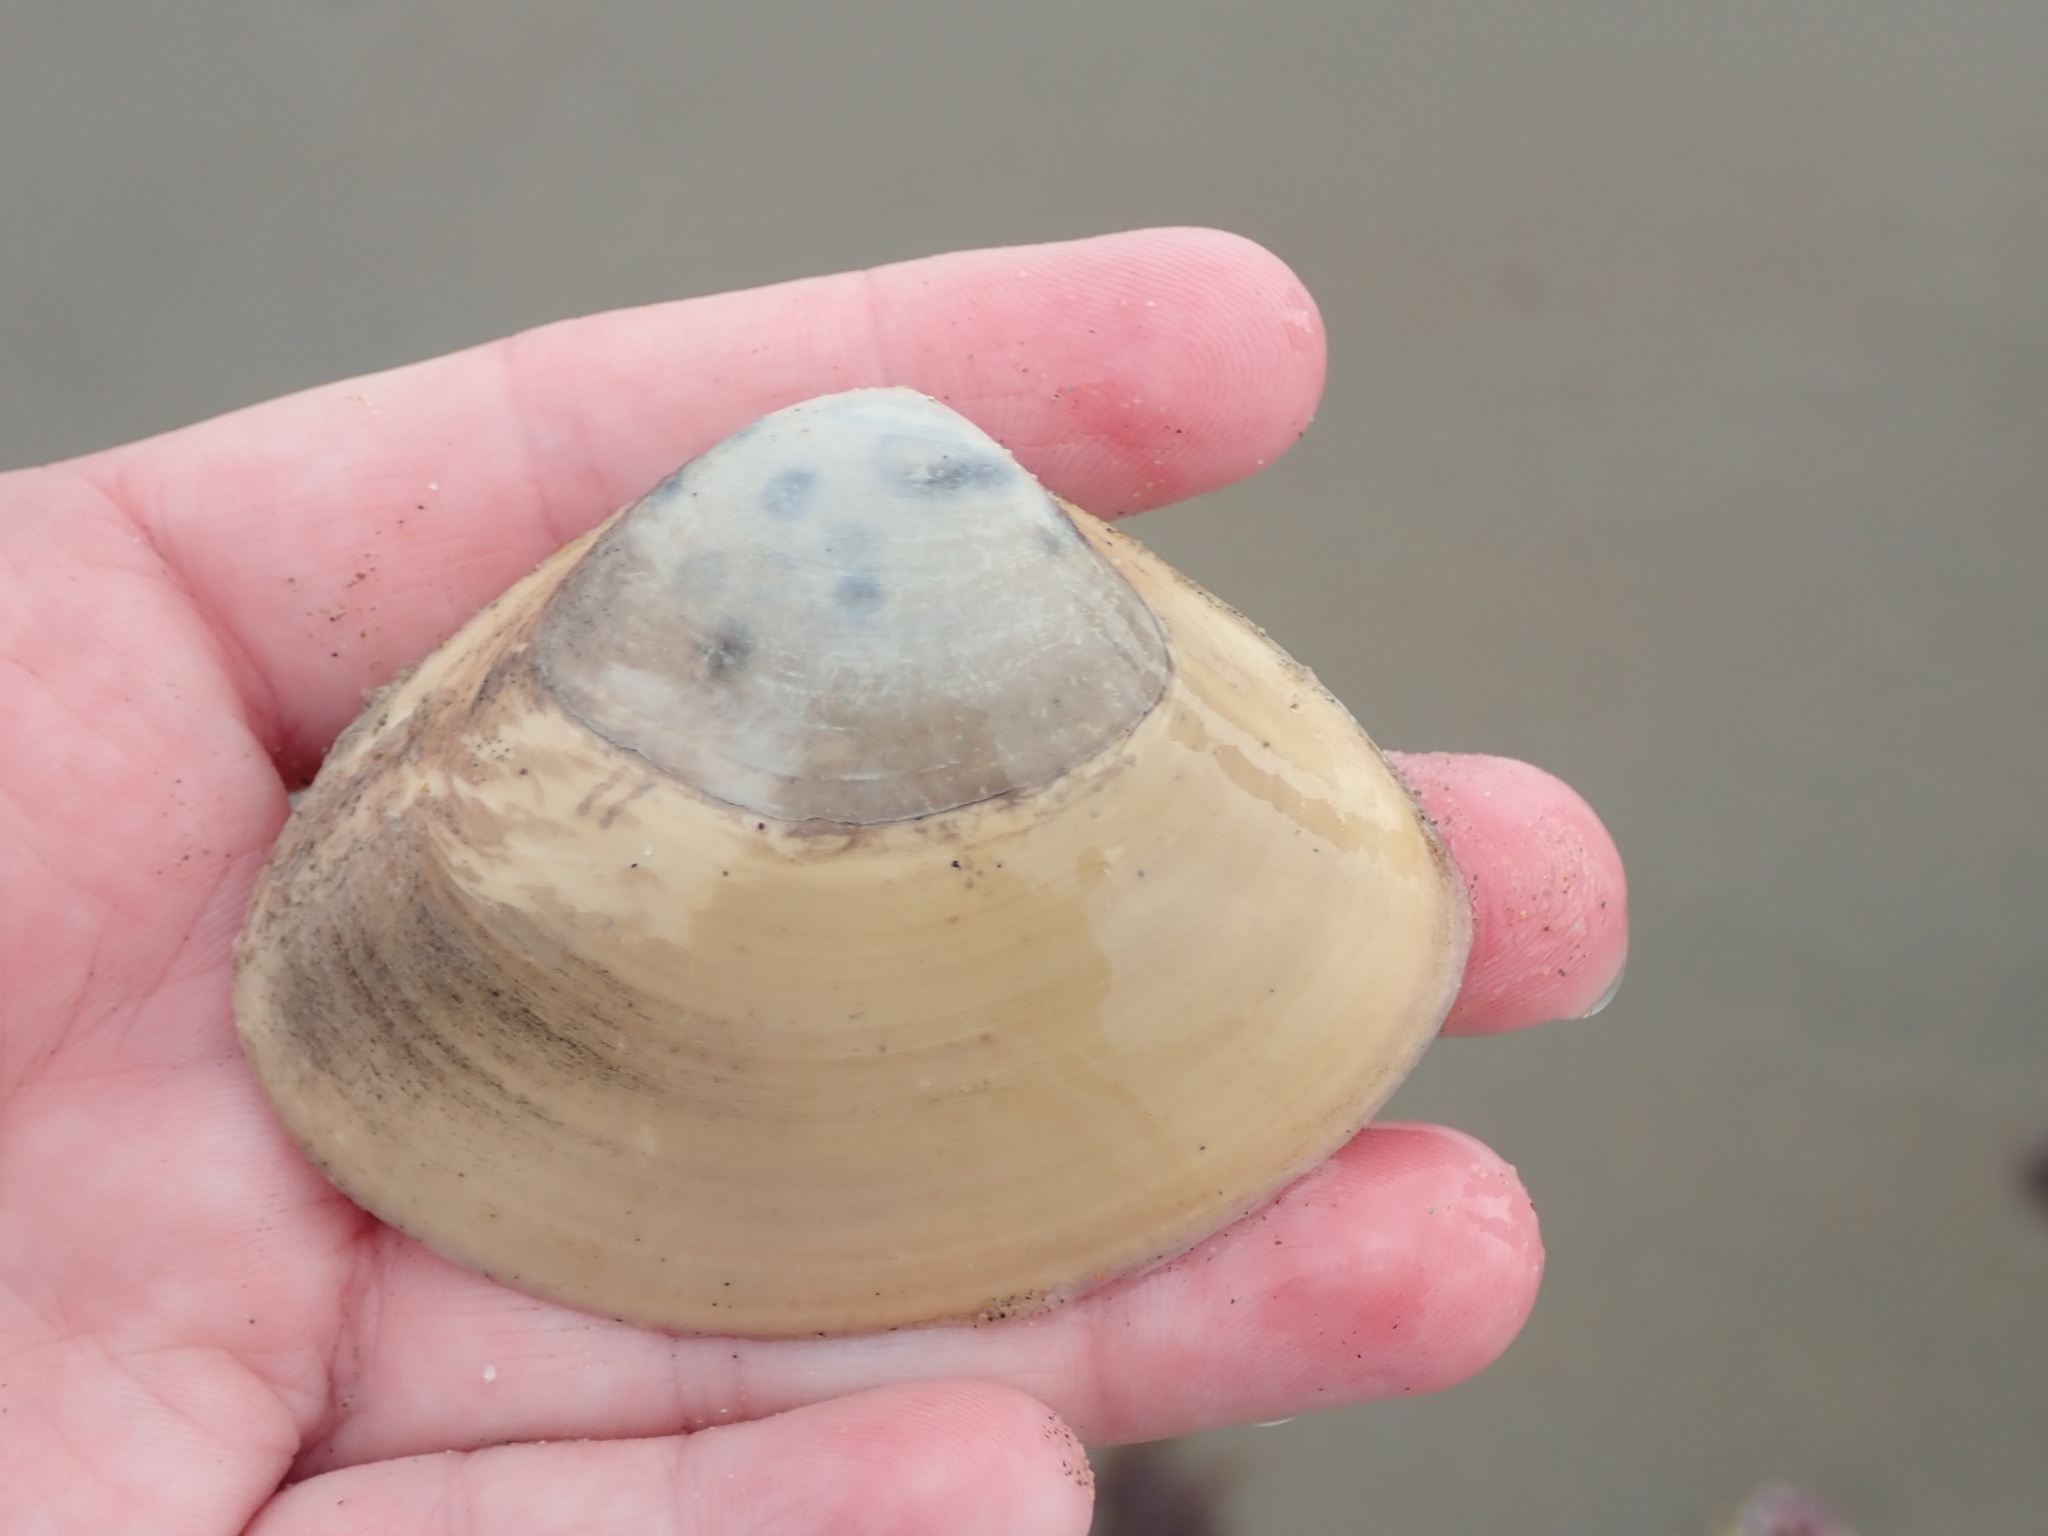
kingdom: Animalia
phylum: Mollusca
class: Bivalvia
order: Venerida
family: Mactridae
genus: Spisula
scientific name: Spisula solidissima
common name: Atlantic surf clam
